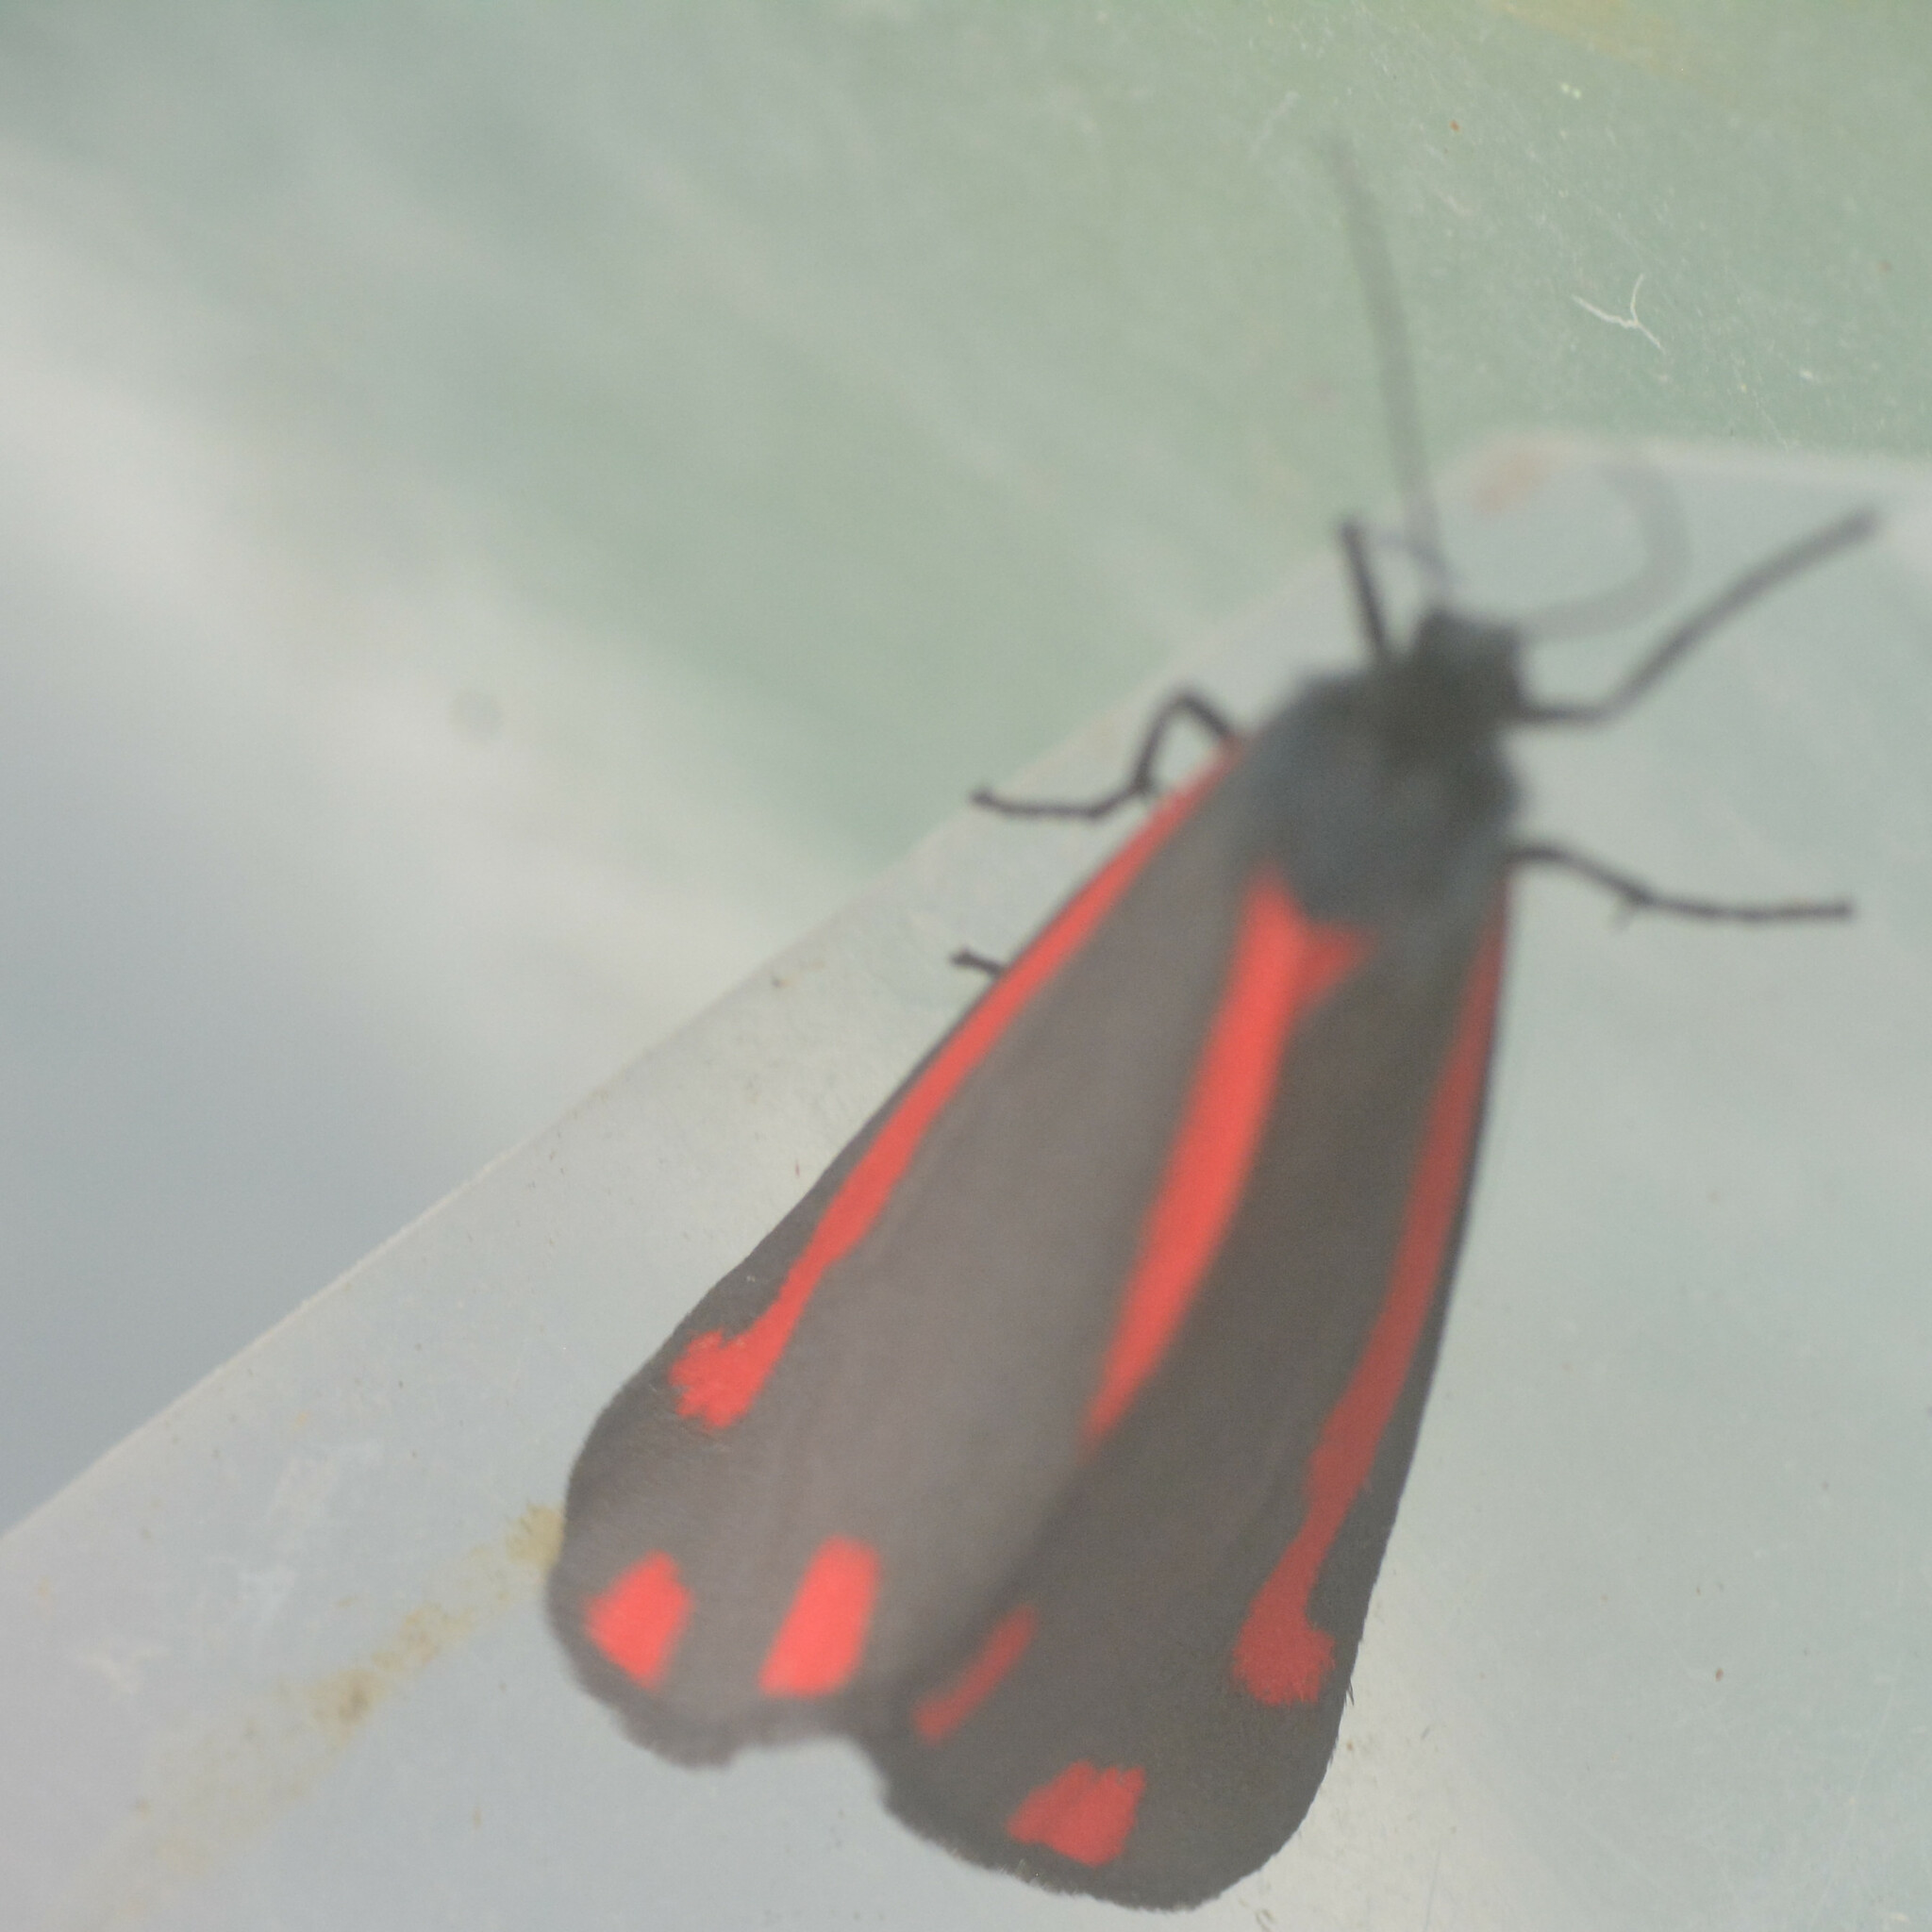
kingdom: Animalia
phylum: Arthropoda
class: Insecta
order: Lepidoptera
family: Erebidae
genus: Tyria
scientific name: Tyria jacobaeae
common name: Cinnabar
